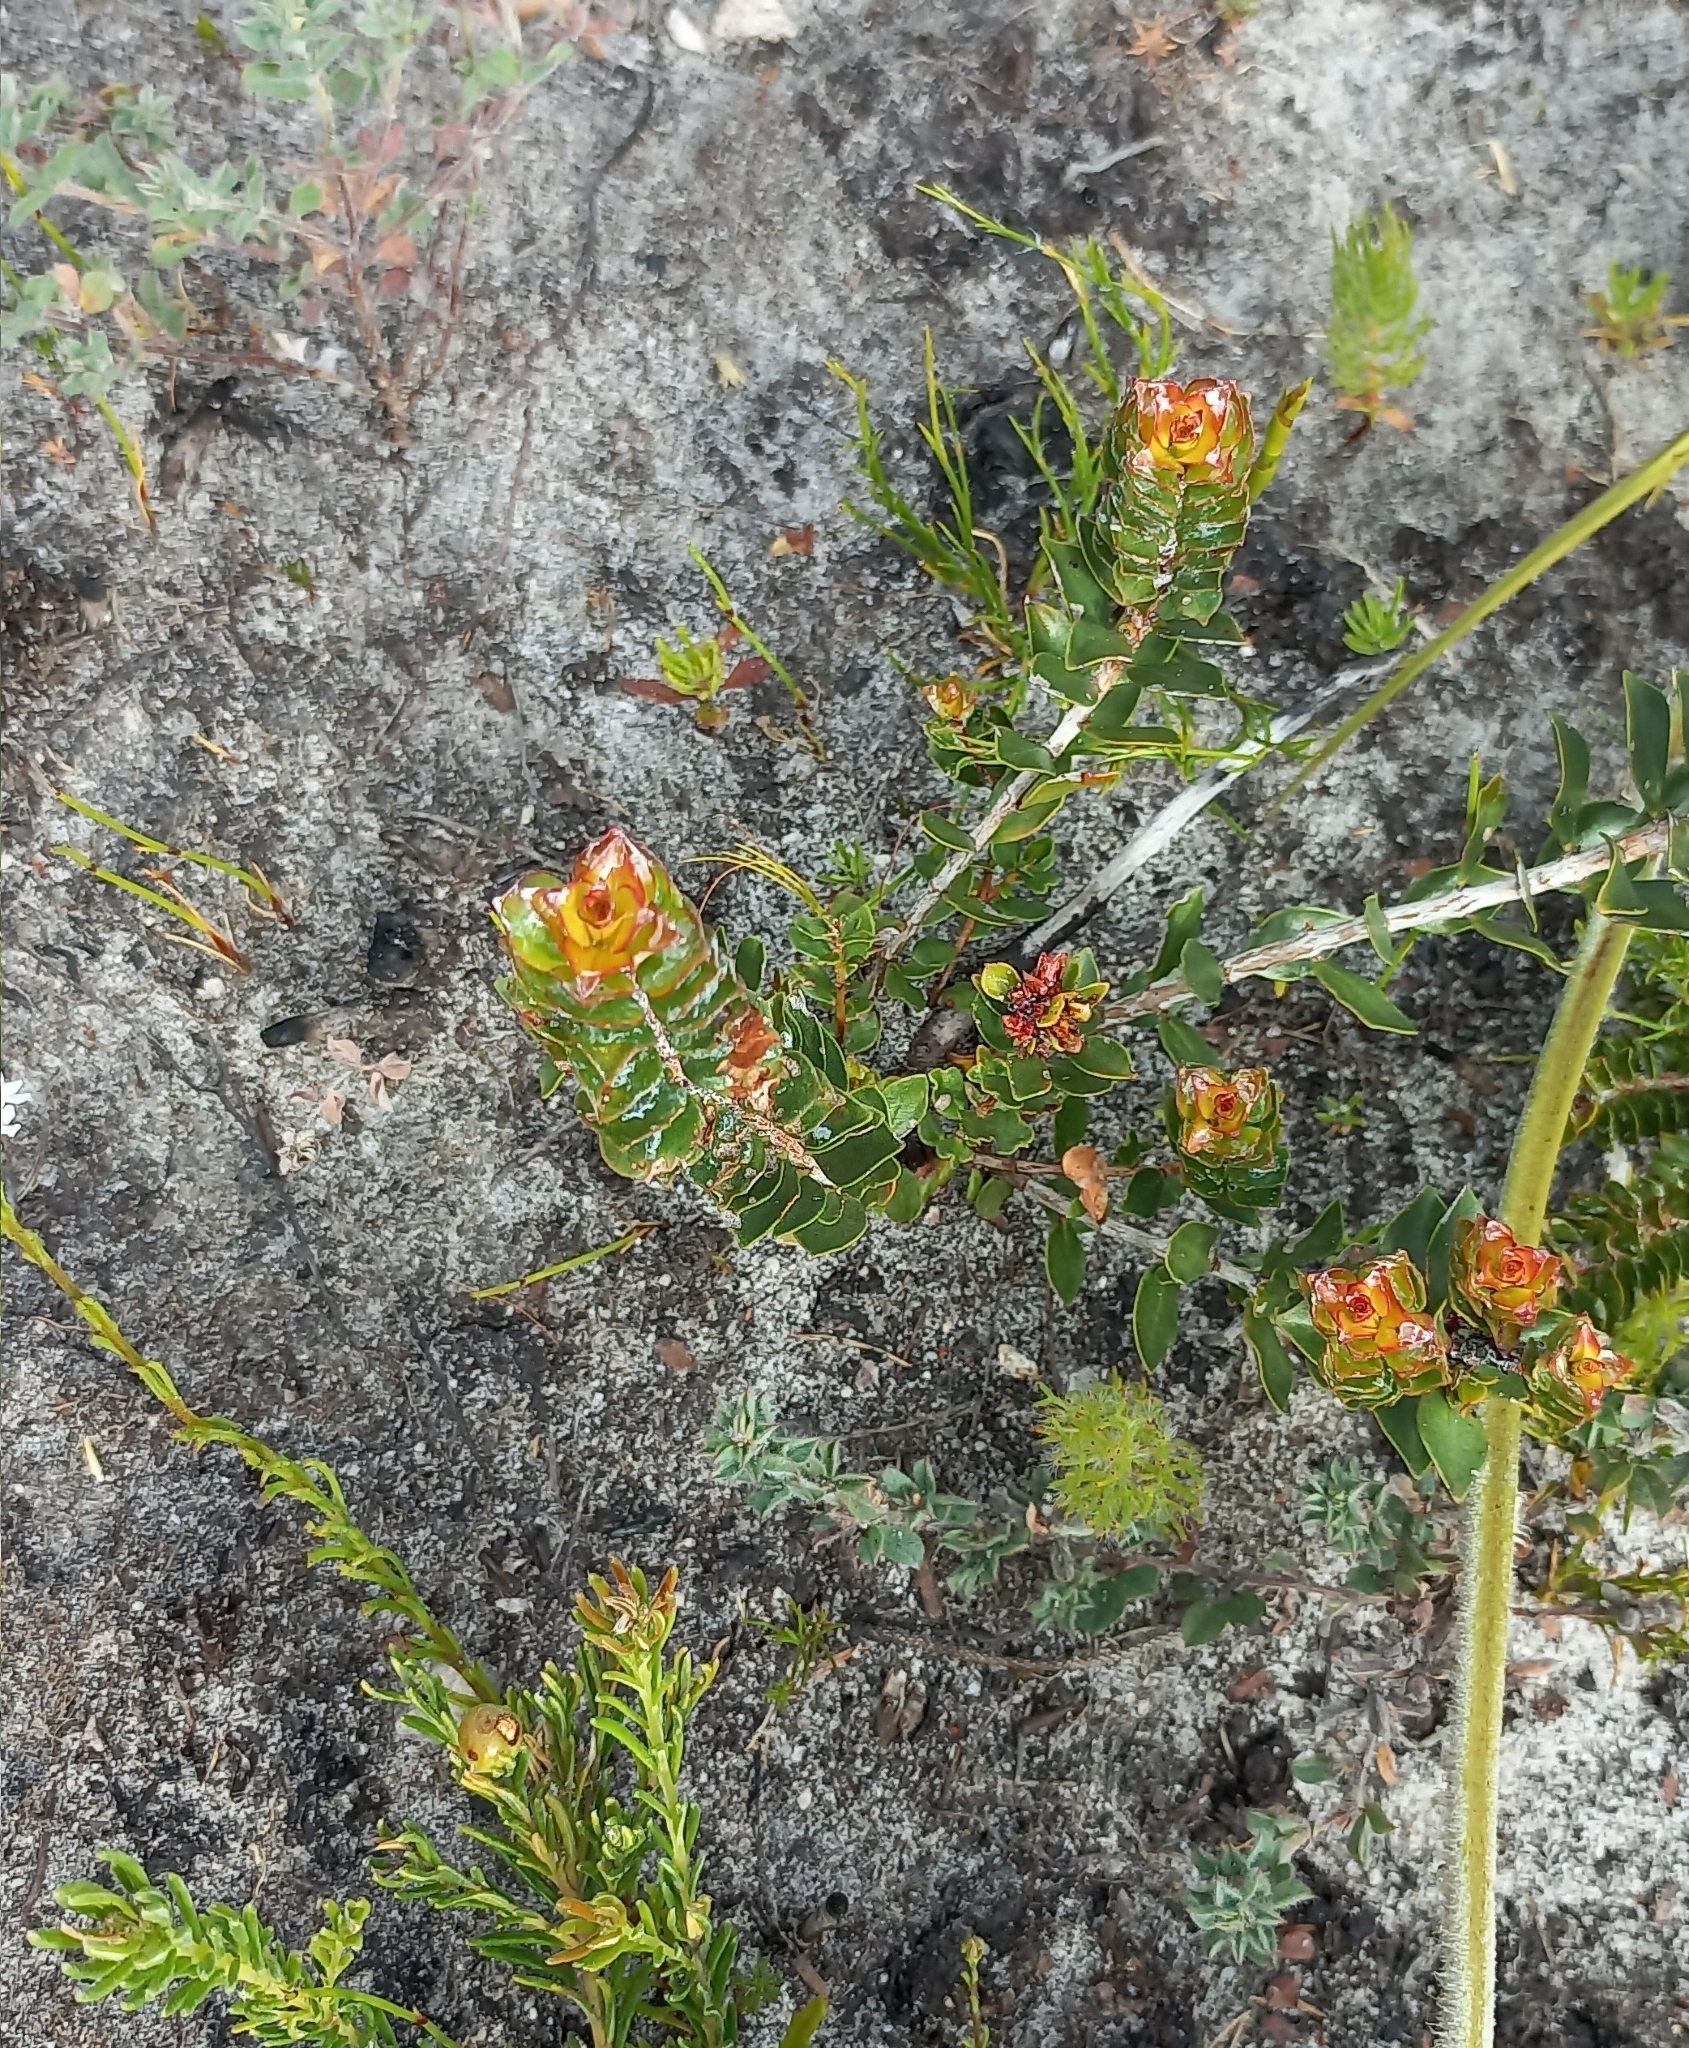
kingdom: Plantae
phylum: Tracheophyta
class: Magnoliopsida
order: Myrtales
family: Penaeaceae
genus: Saltera
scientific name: Saltera sarcocolla
